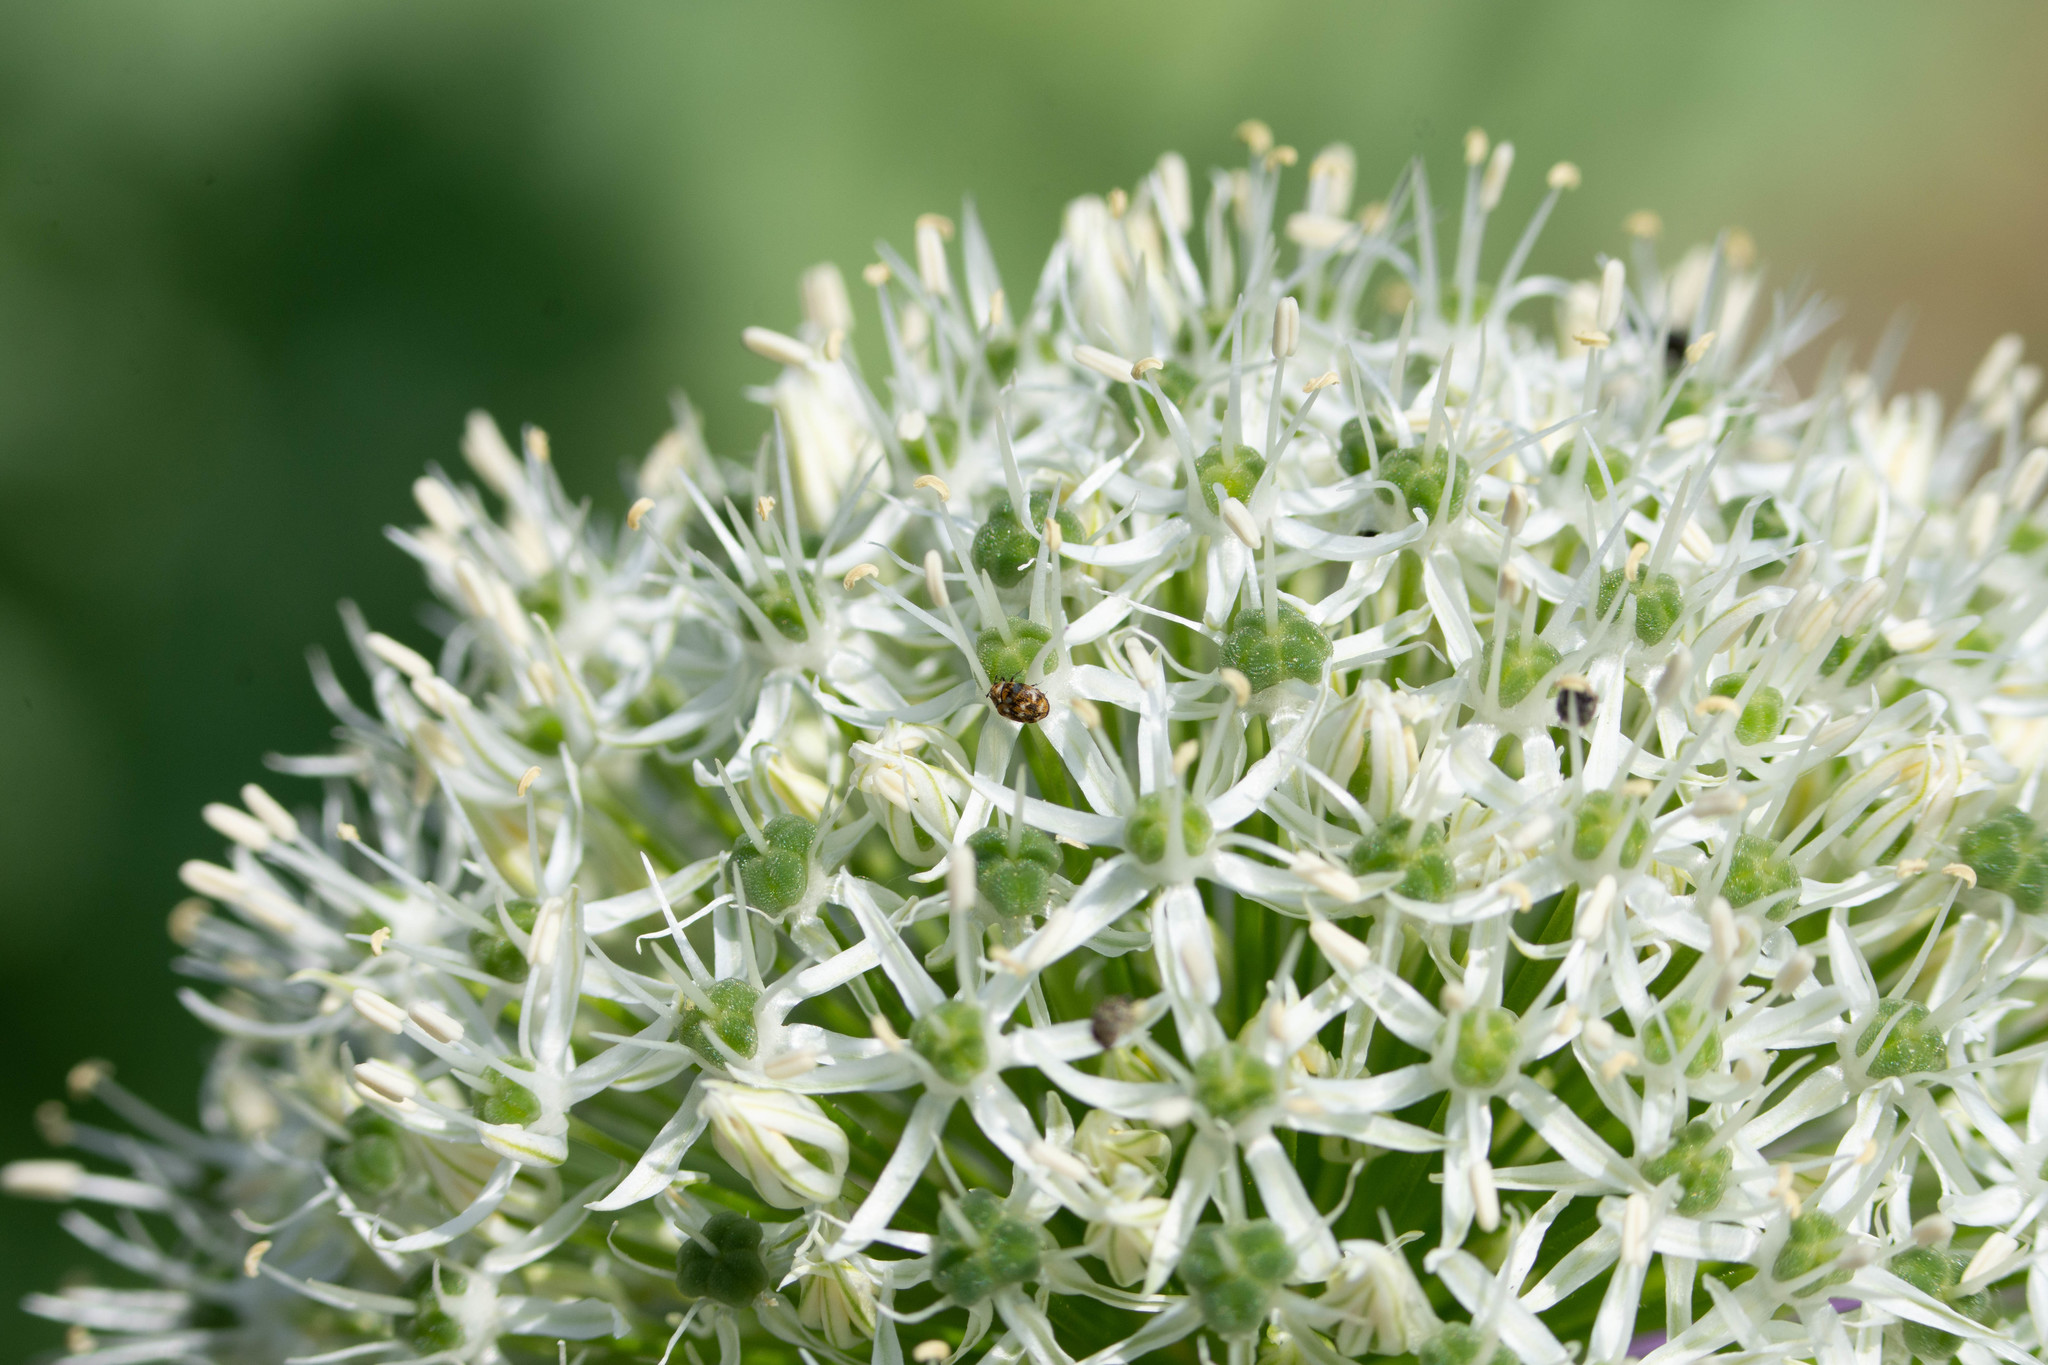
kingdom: Animalia
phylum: Arthropoda
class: Insecta
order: Coleoptera
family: Dermestidae
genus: Anthrenus
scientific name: Anthrenus verbasci
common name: Varied carpet beetle
